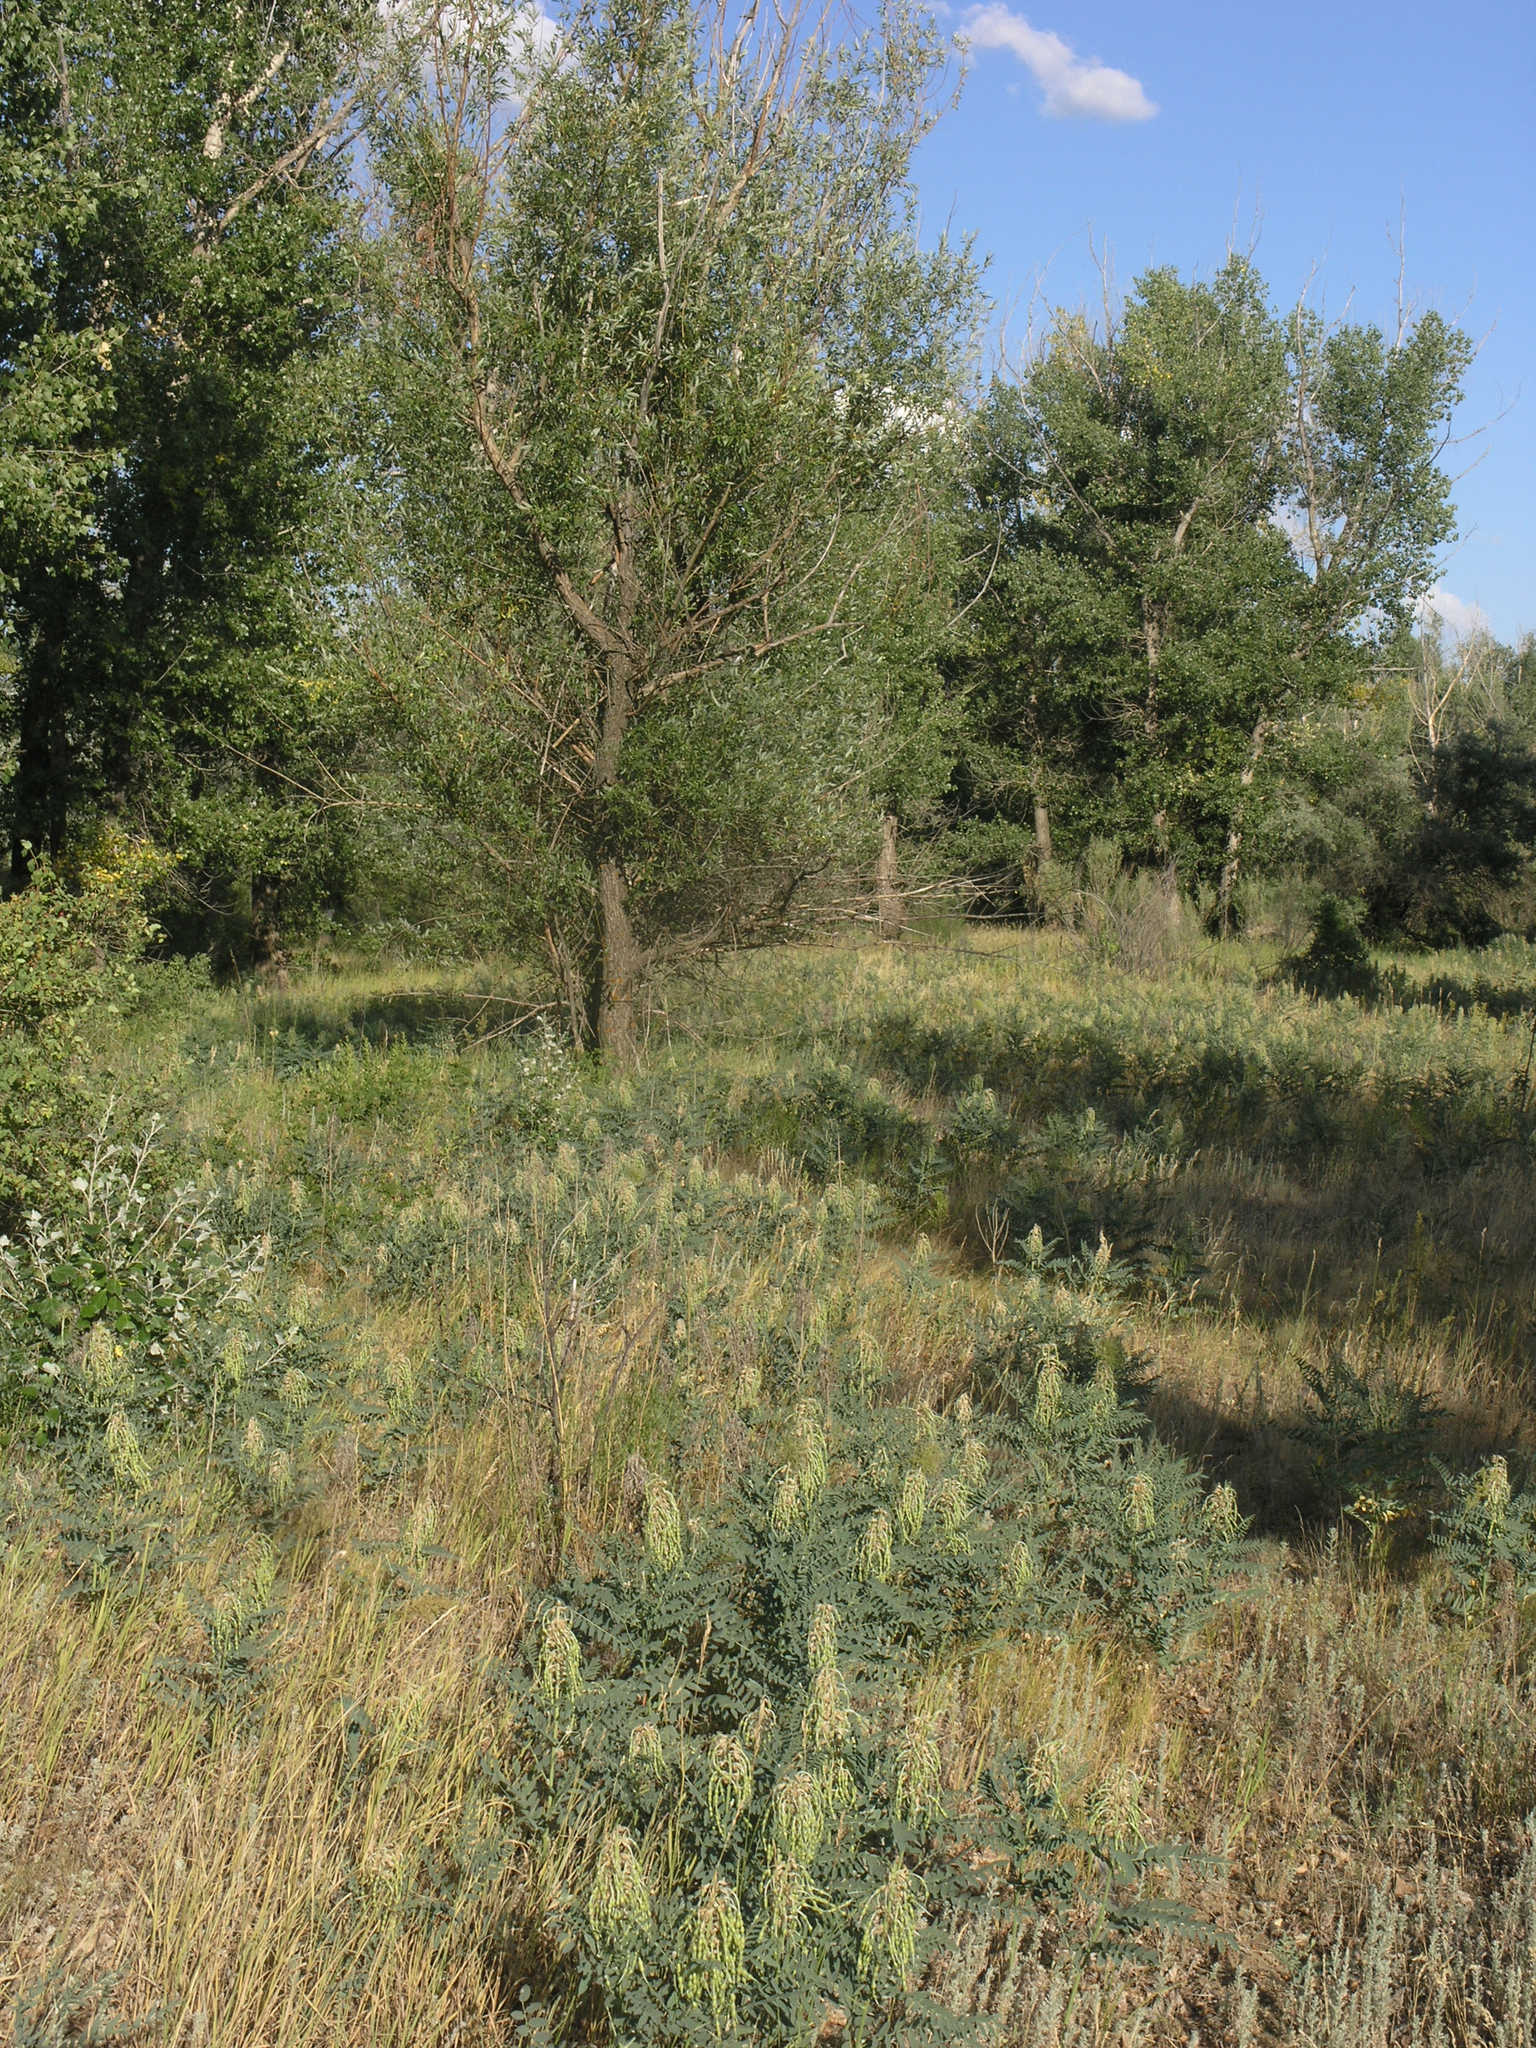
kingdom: Plantae
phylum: Tracheophyta
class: Magnoliopsida
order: Fabales
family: Fabaceae
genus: Sophora
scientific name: Sophora alopecuroides
